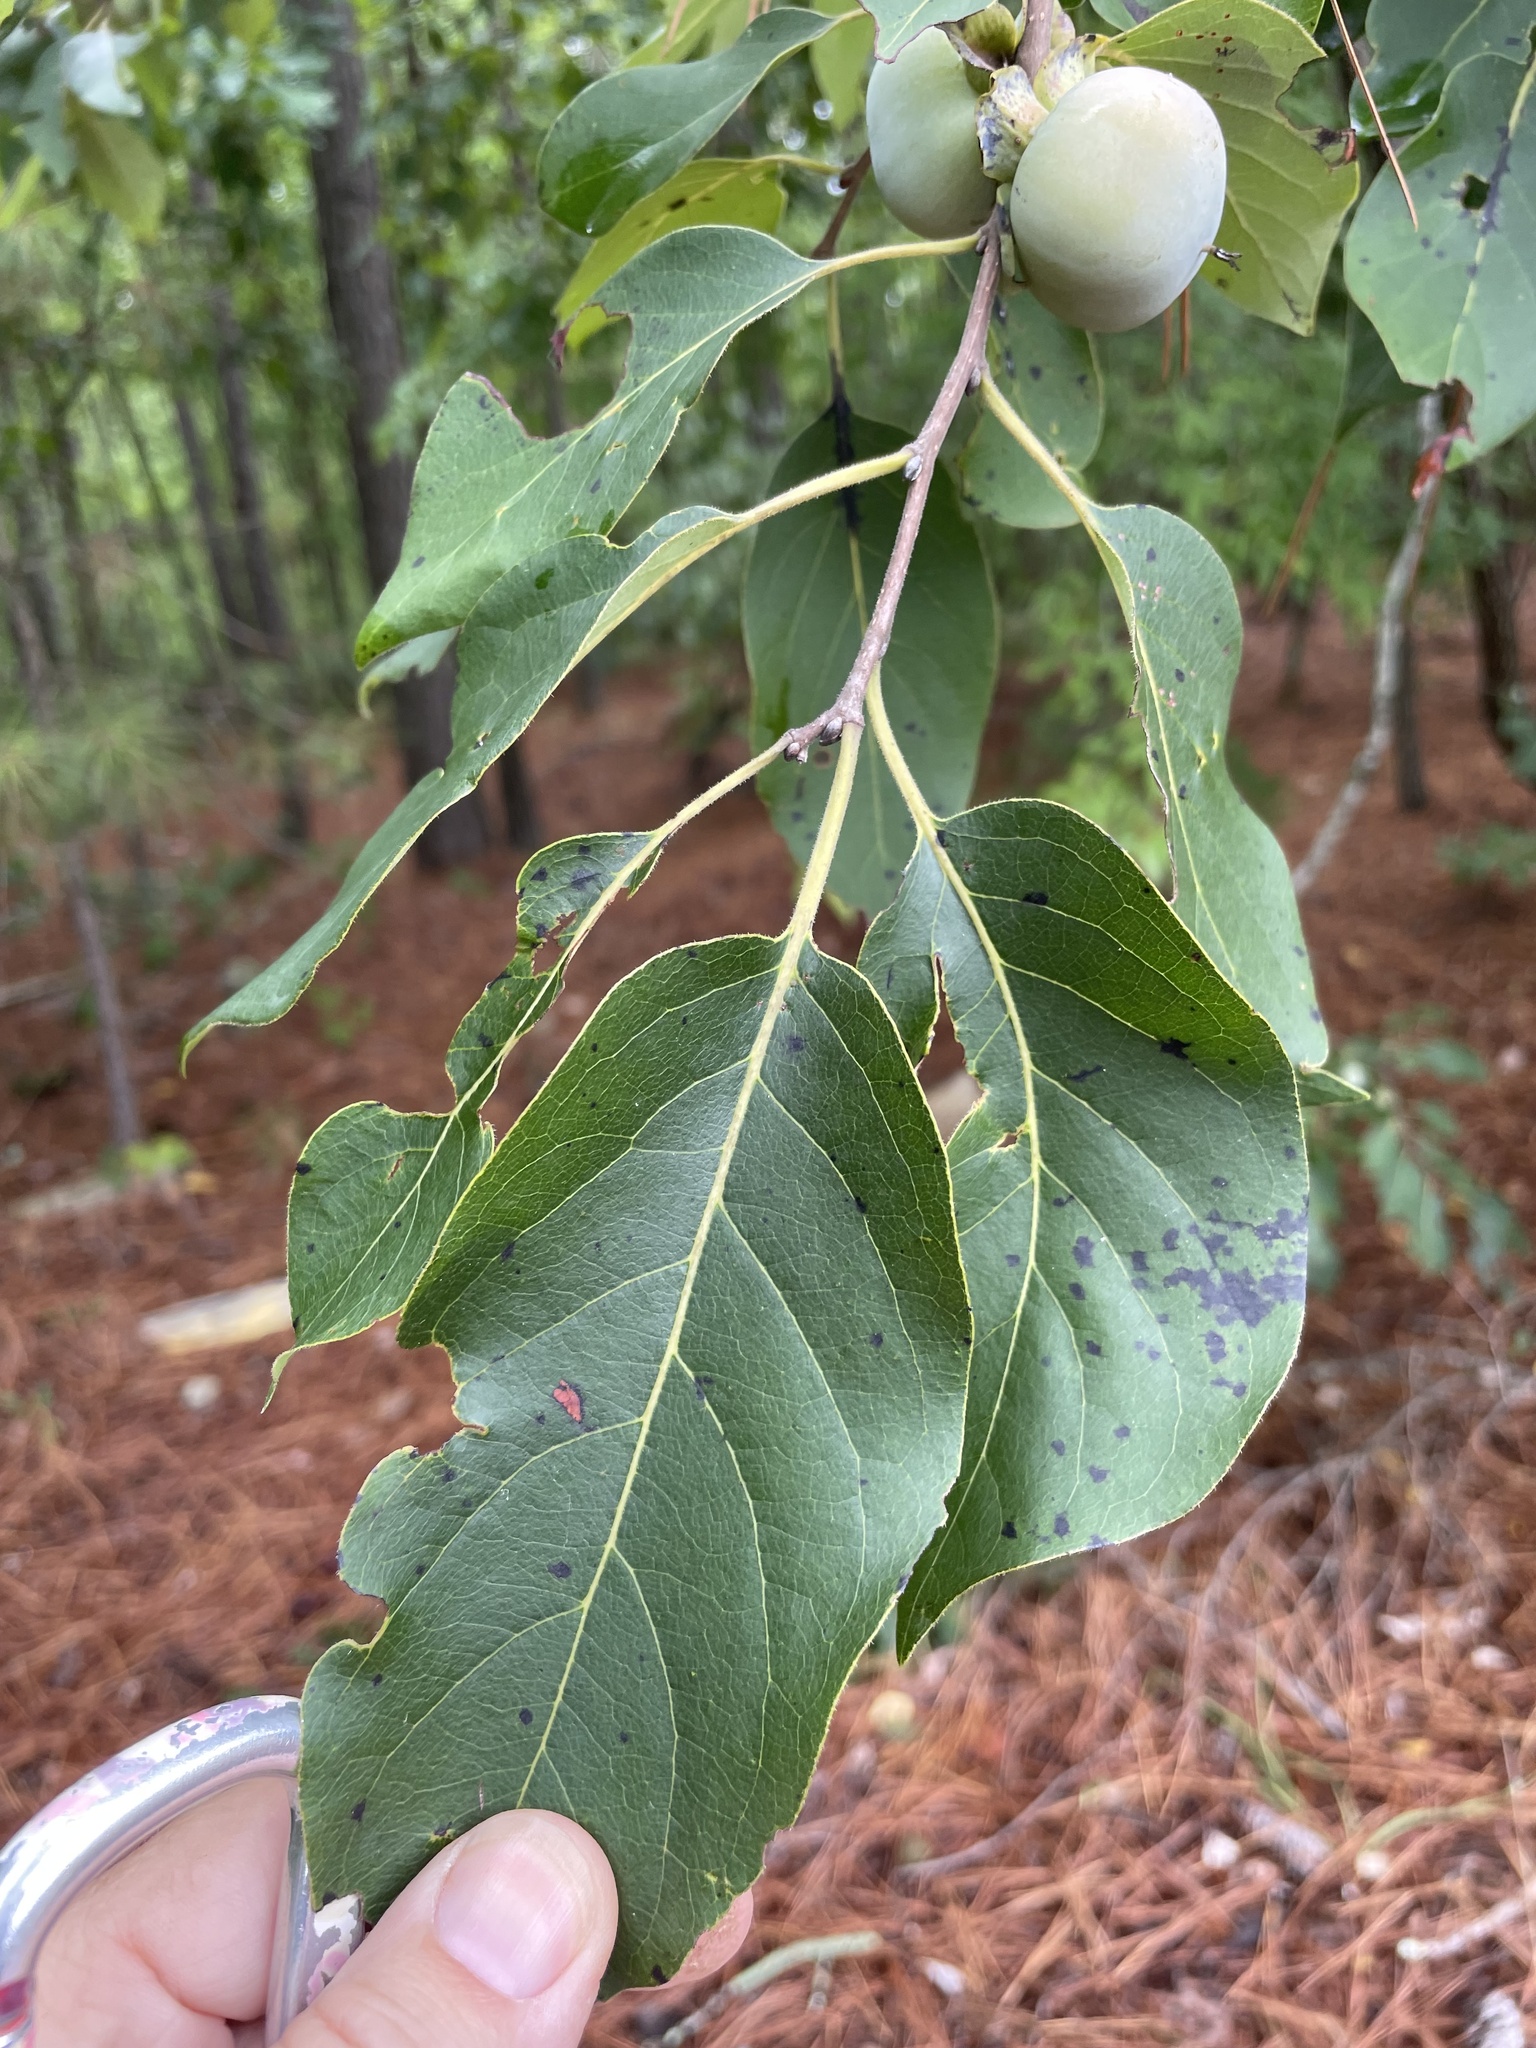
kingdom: Plantae
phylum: Tracheophyta
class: Magnoliopsida
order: Ericales
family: Ebenaceae
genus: Diospyros
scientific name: Diospyros virginiana
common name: Persimmon
